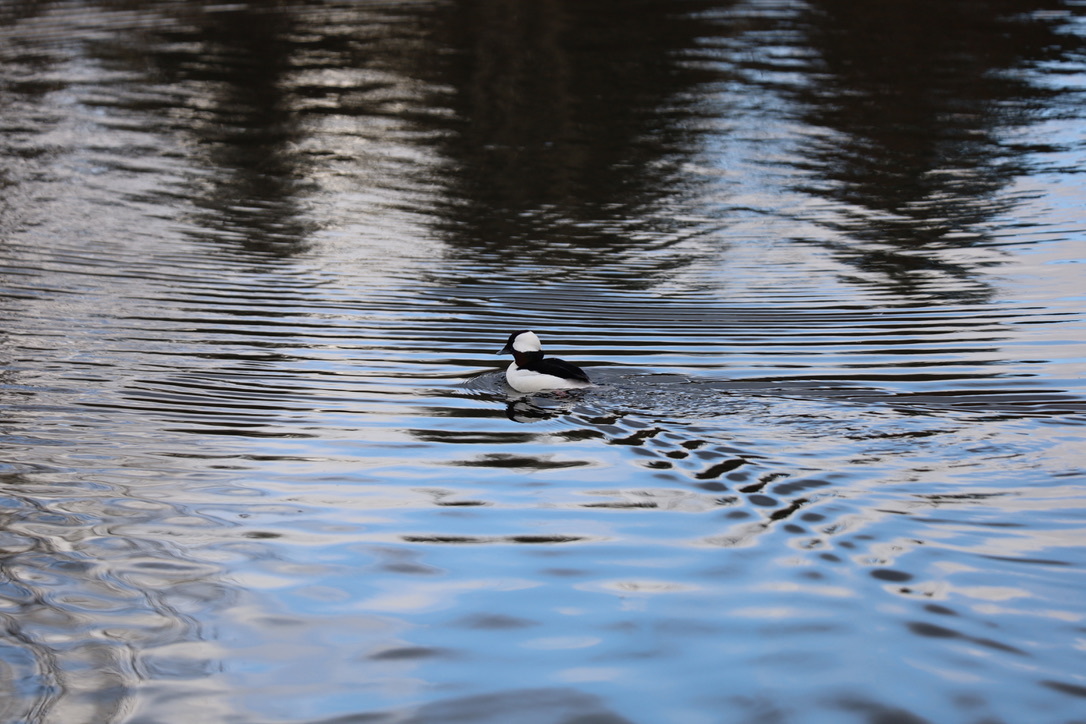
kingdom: Animalia
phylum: Chordata
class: Aves
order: Anseriformes
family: Anatidae
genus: Bucephala
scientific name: Bucephala albeola
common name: Bufflehead
